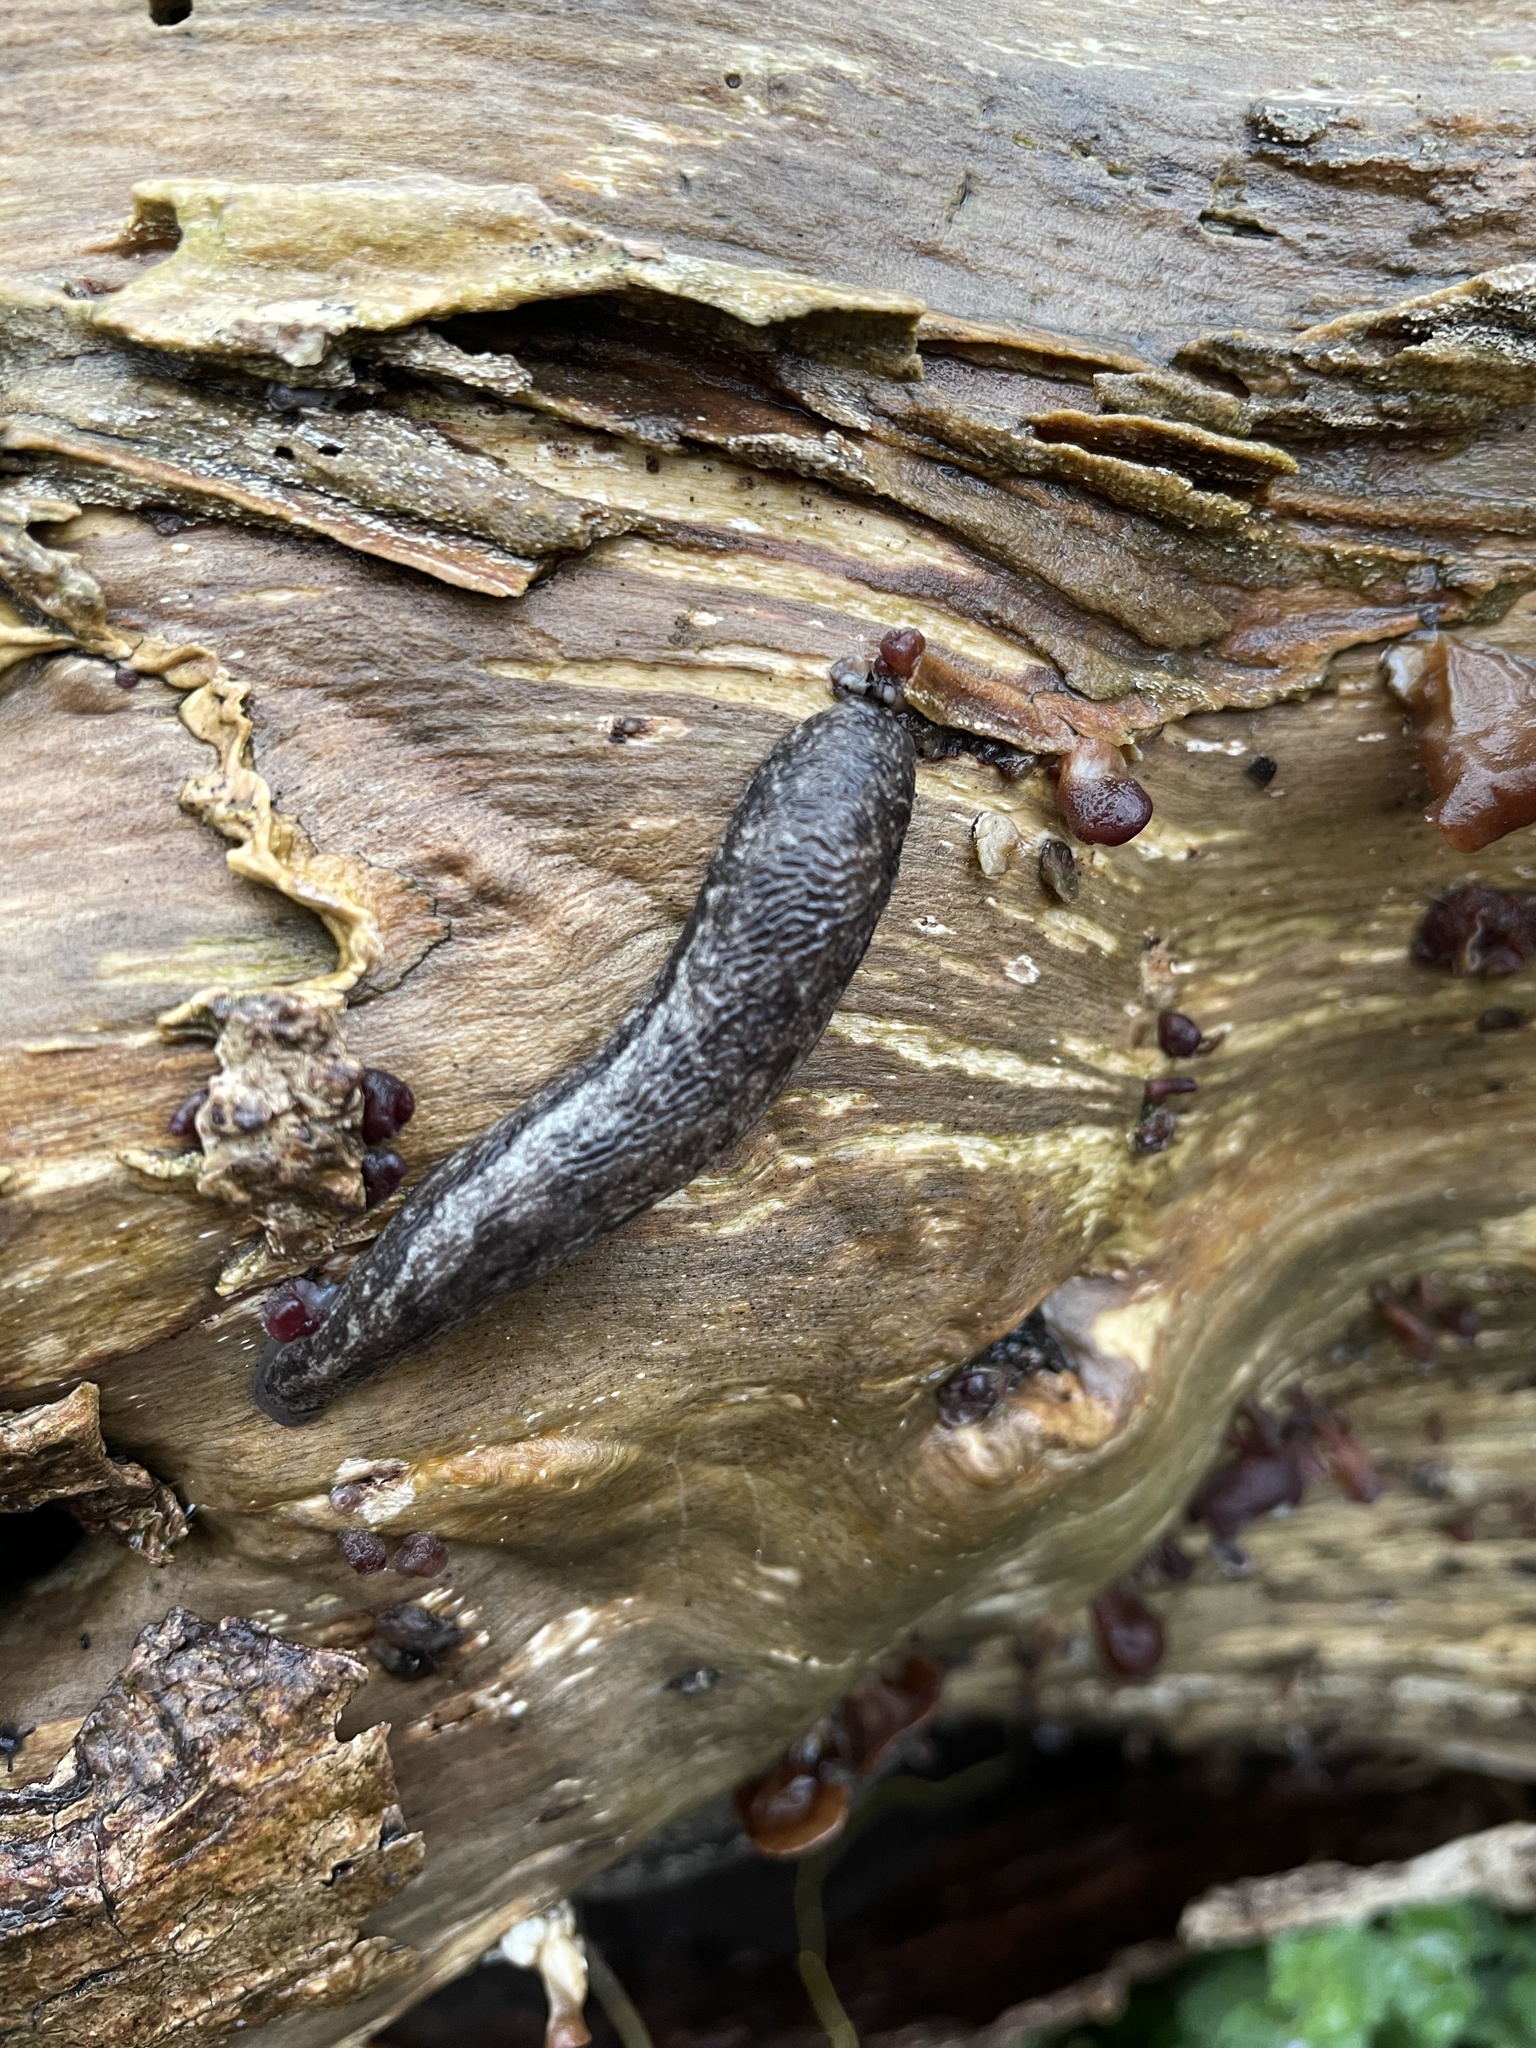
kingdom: Animalia
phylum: Mollusca
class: Gastropoda
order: Stylommatophora
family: Philomycidae
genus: Megapallifera
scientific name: Megapallifera mutabilis
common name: Changeable mantleslug
